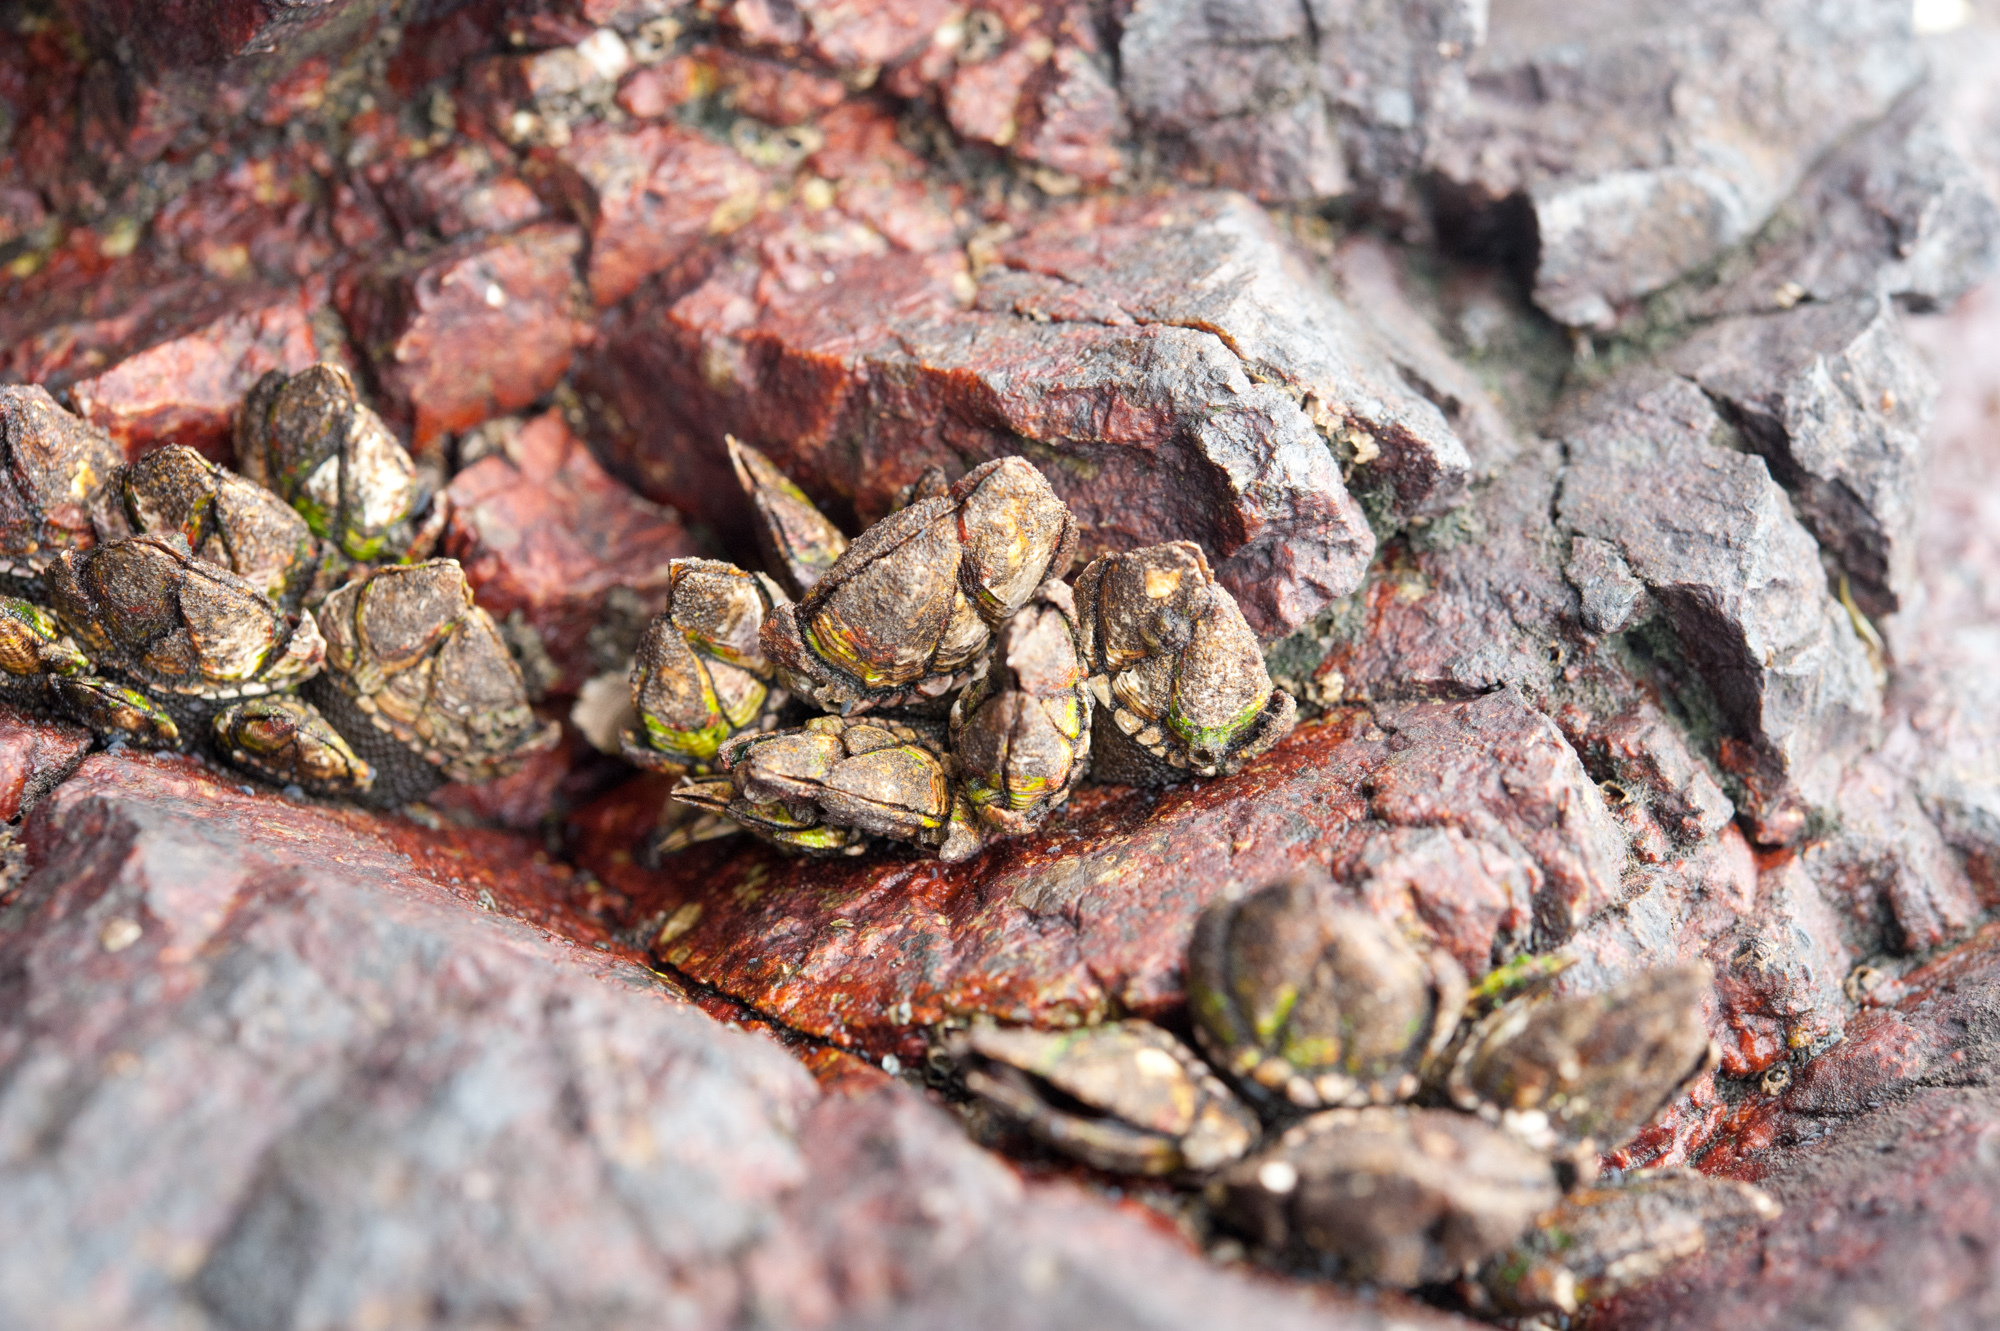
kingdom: Animalia
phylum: Arthropoda
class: Maxillopoda
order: Pedunculata
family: Pollicipedidae
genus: Capitulum
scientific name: Capitulum mitella
